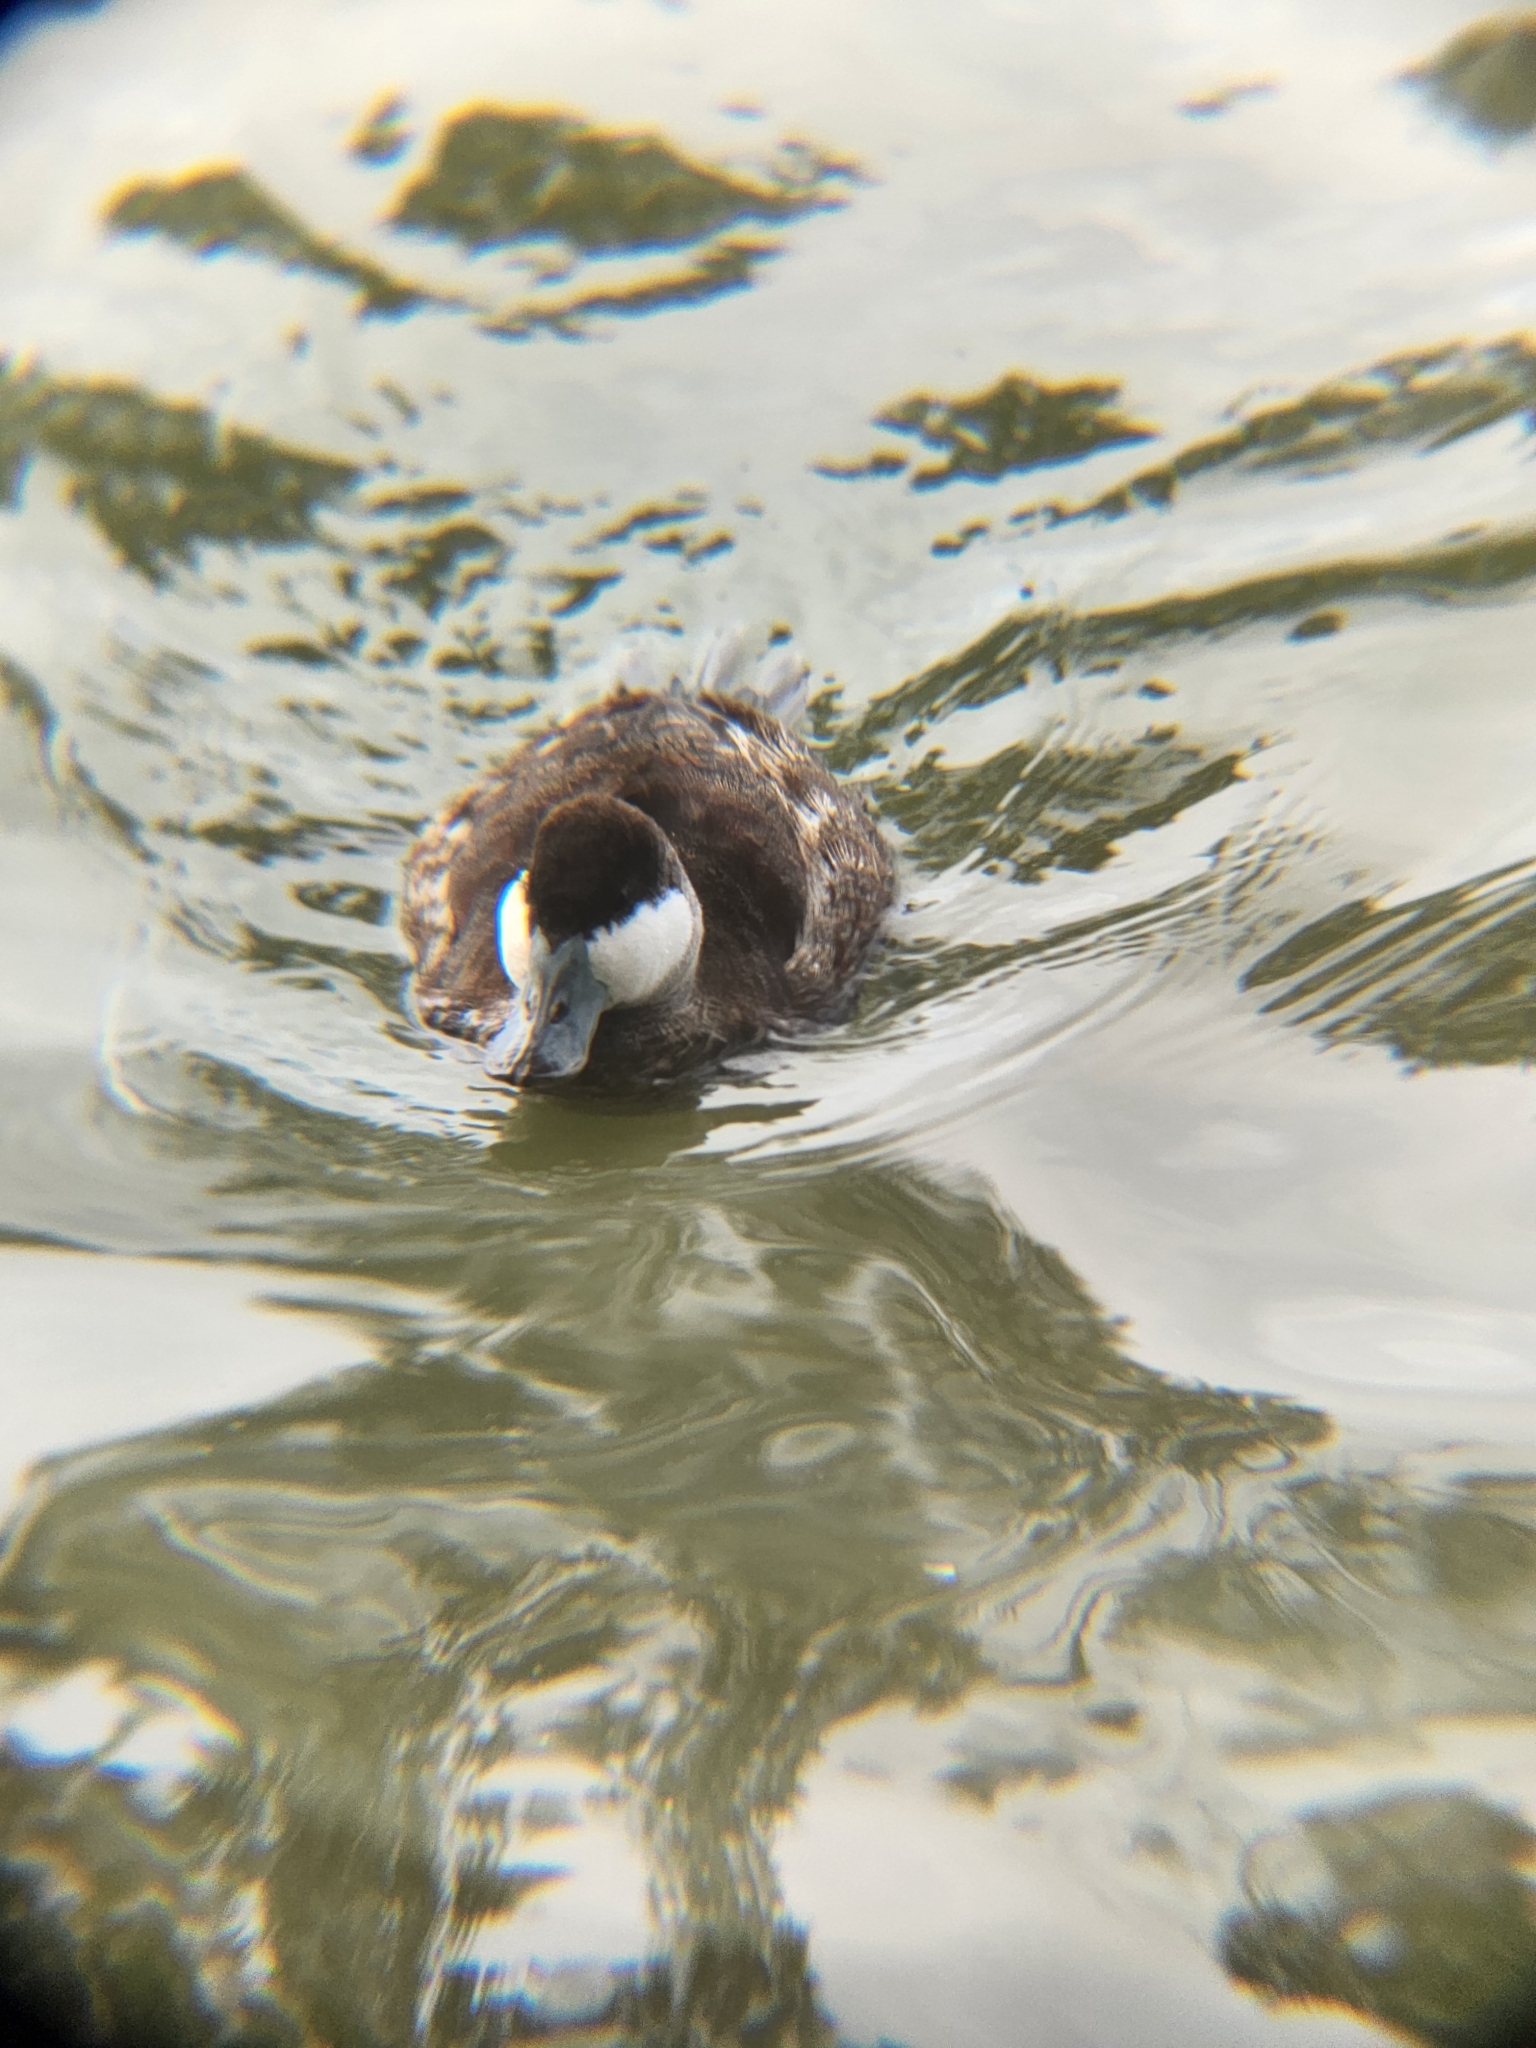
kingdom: Animalia
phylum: Chordata
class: Aves
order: Anseriformes
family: Anatidae
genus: Oxyura
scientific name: Oxyura jamaicensis
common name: Ruddy duck
